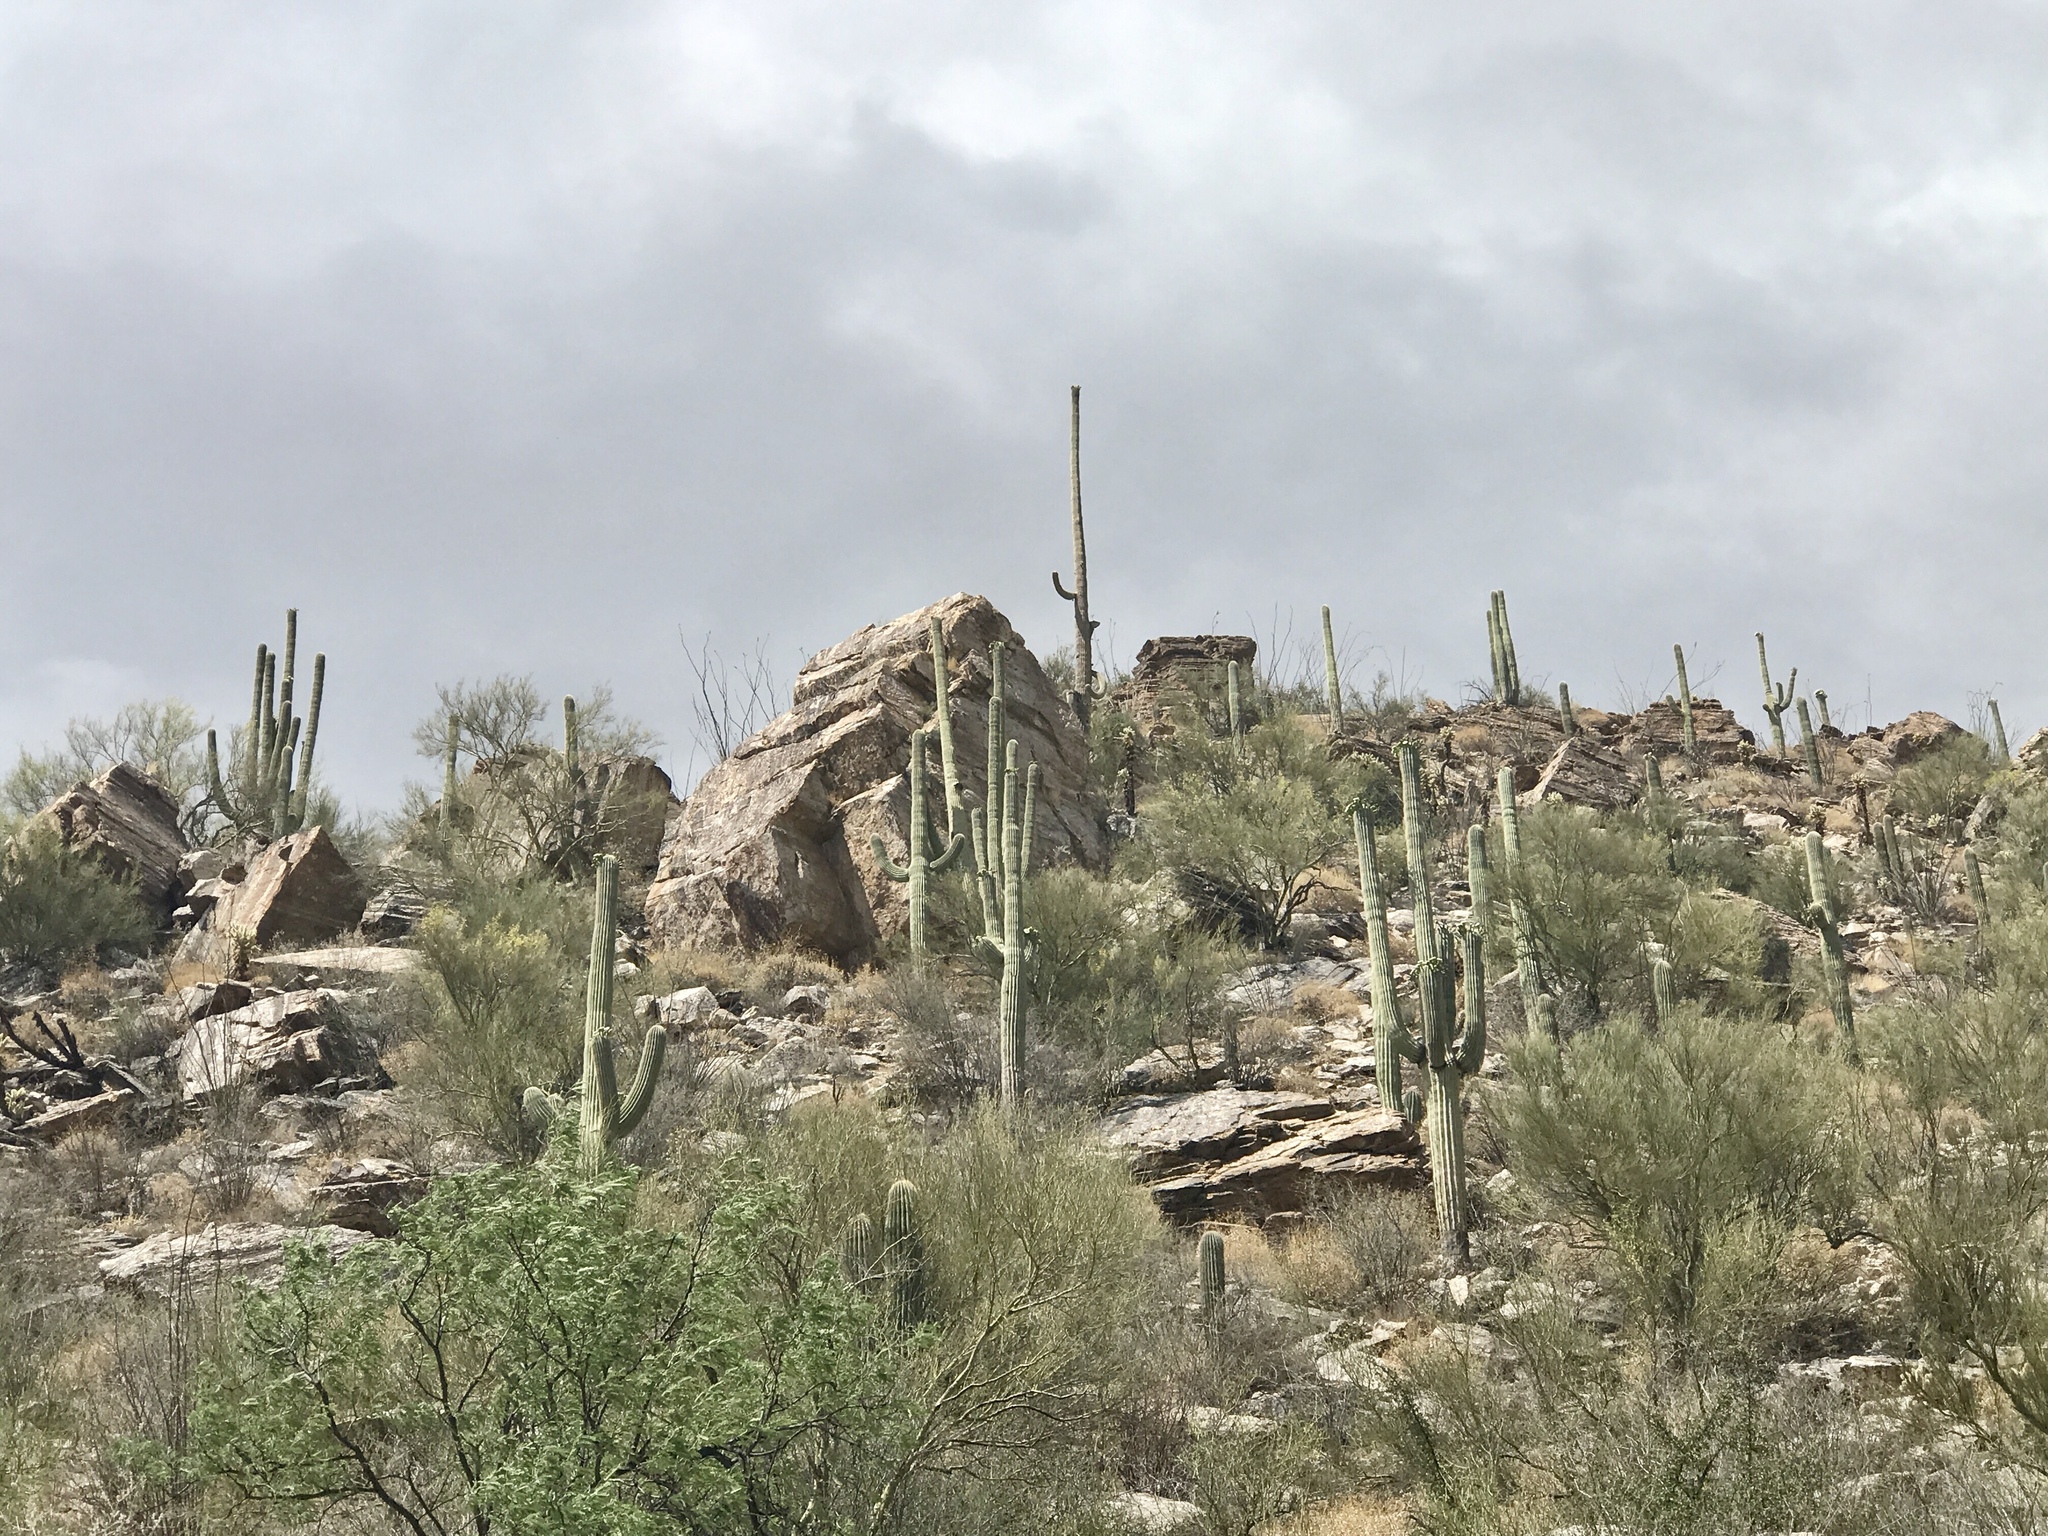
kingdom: Plantae
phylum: Tracheophyta
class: Magnoliopsida
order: Caryophyllales
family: Cactaceae
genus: Carnegiea
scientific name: Carnegiea gigantea
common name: Saguaro
